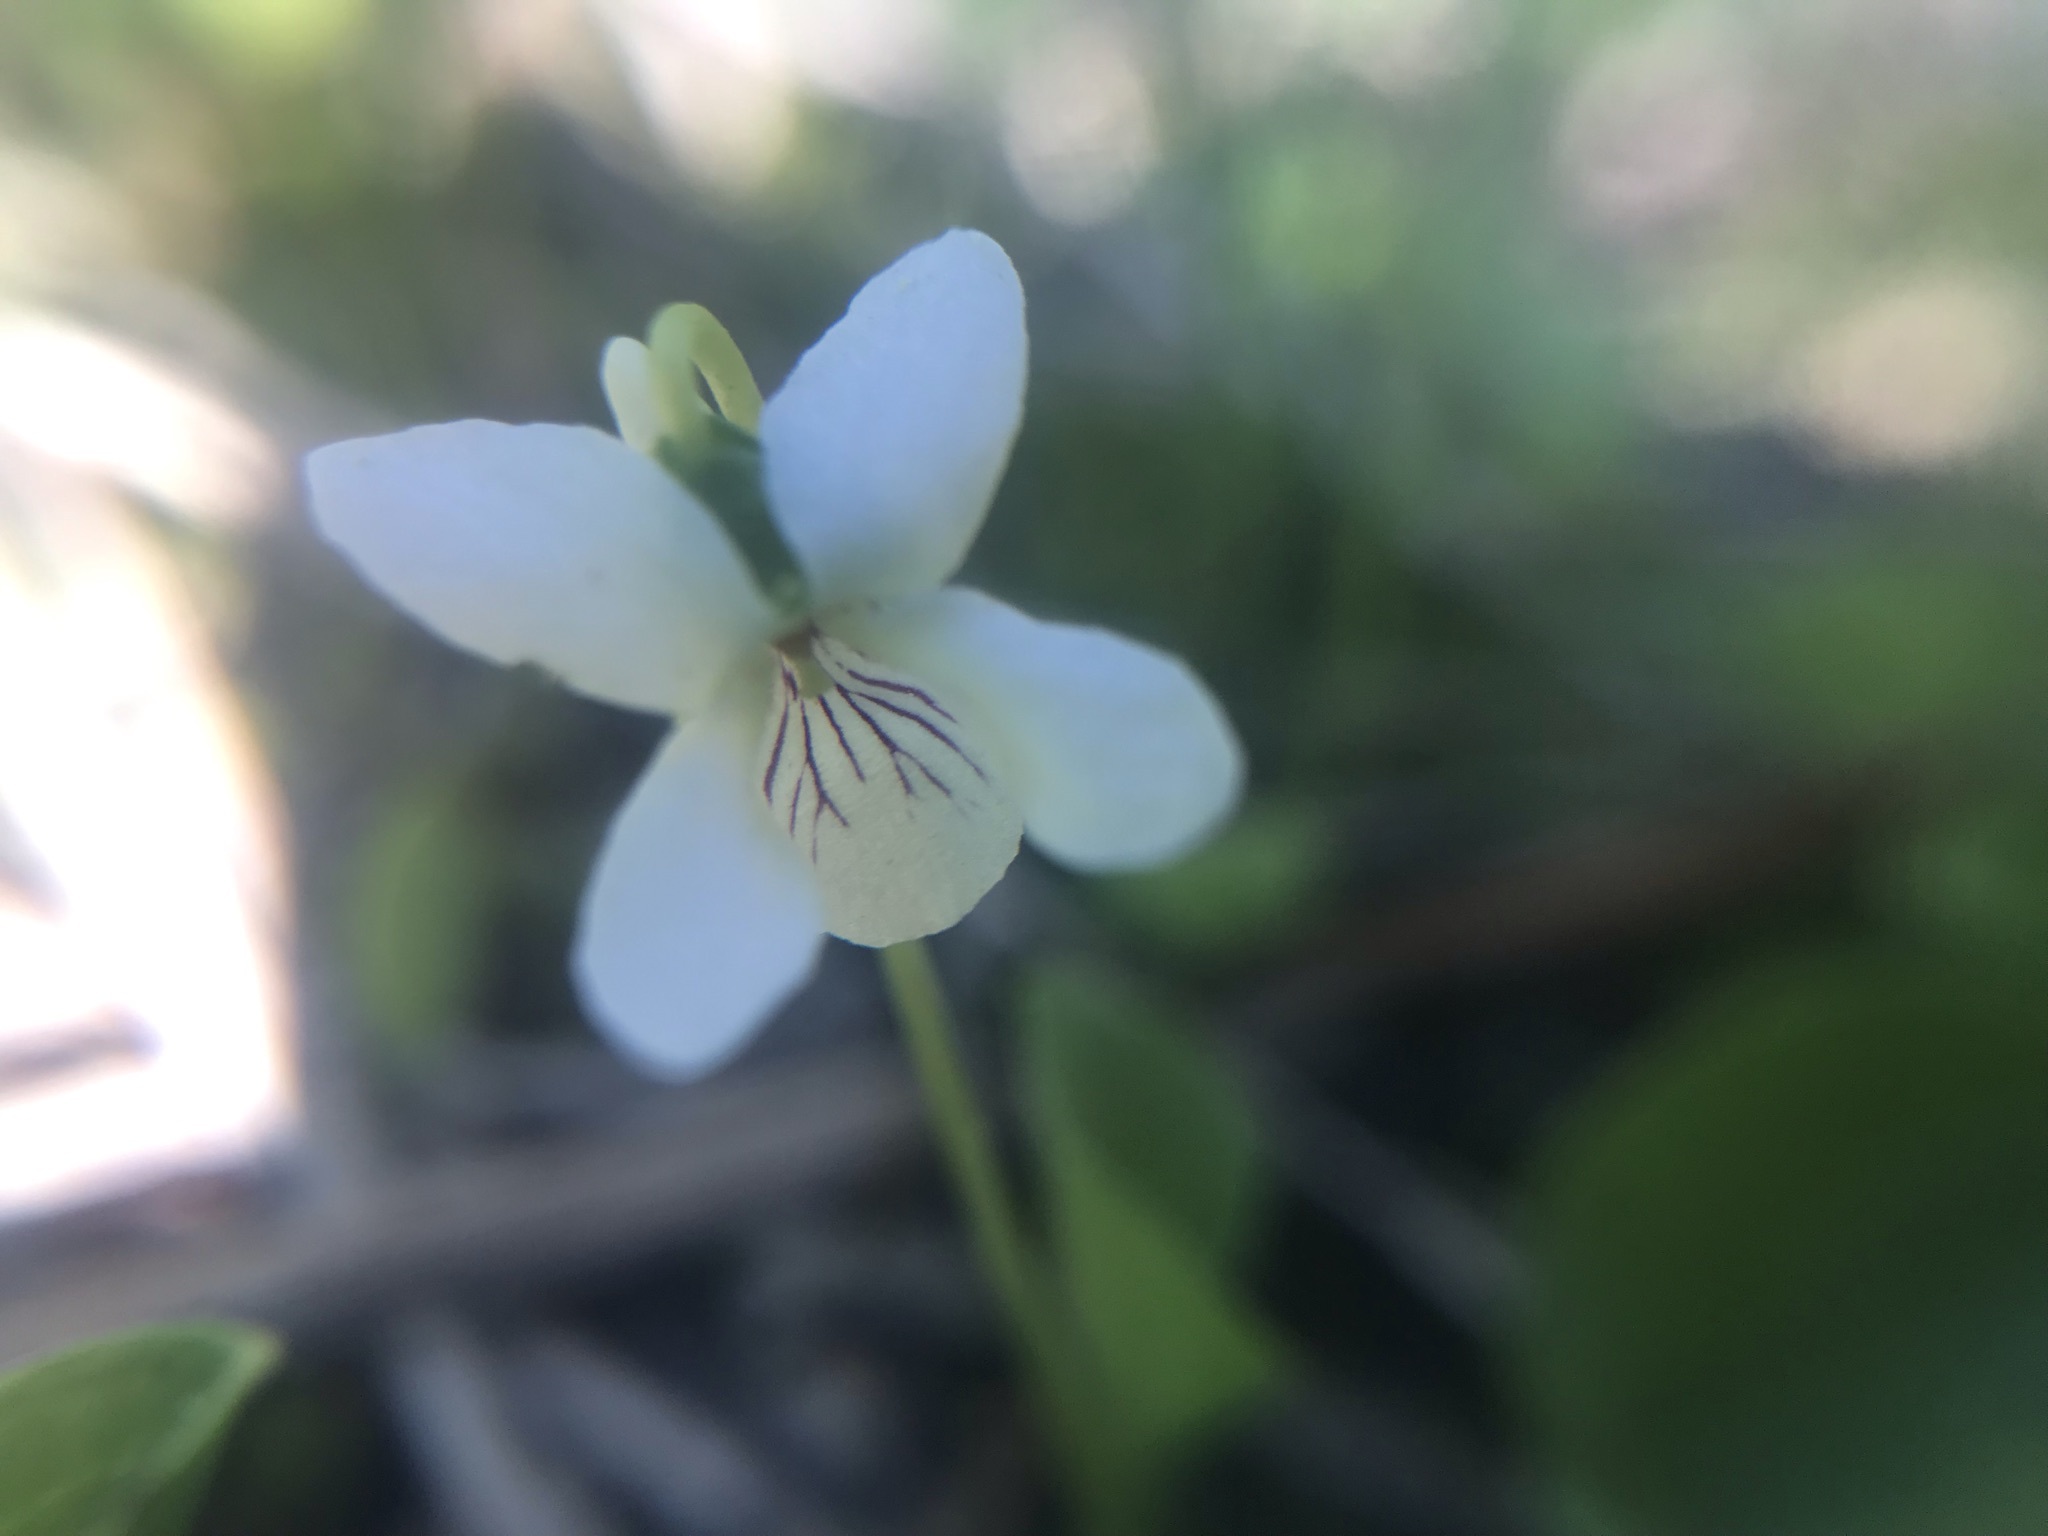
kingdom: Plantae
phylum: Tracheophyta
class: Magnoliopsida
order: Malpighiales
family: Violaceae
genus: Viola
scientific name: Viola macloskeyi
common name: Macloskey's violet
